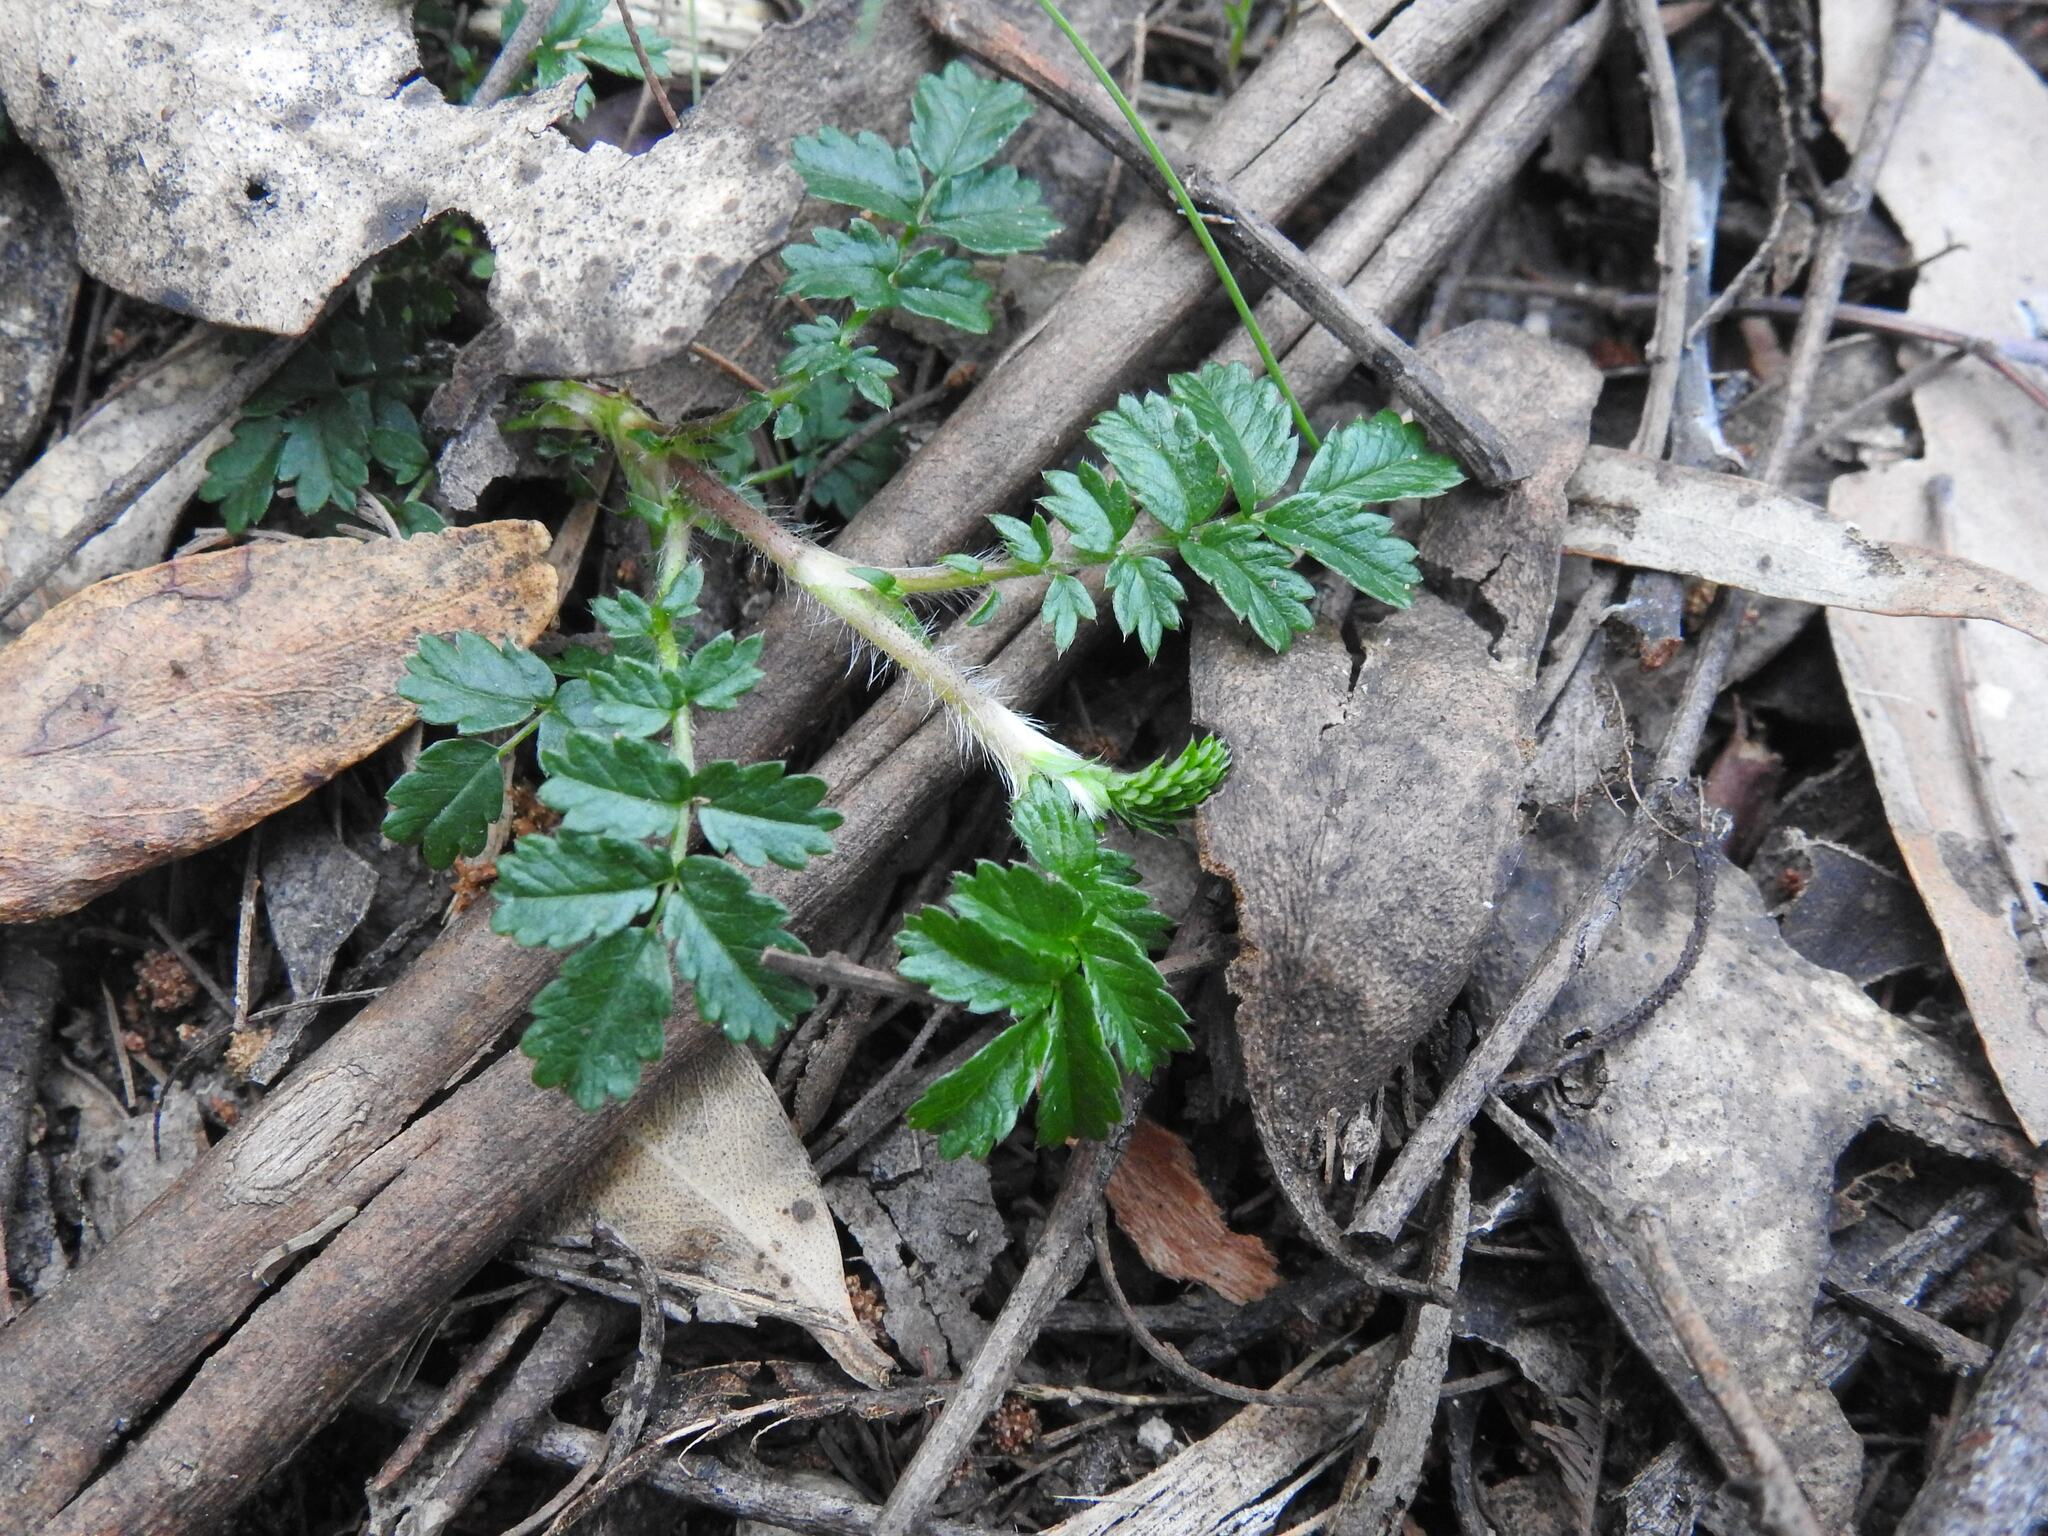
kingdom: Plantae
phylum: Tracheophyta
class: Magnoliopsida
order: Rosales
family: Rosaceae
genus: Acaena
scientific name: Acaena novae-zelandiae
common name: Pirri-pirri-bur
